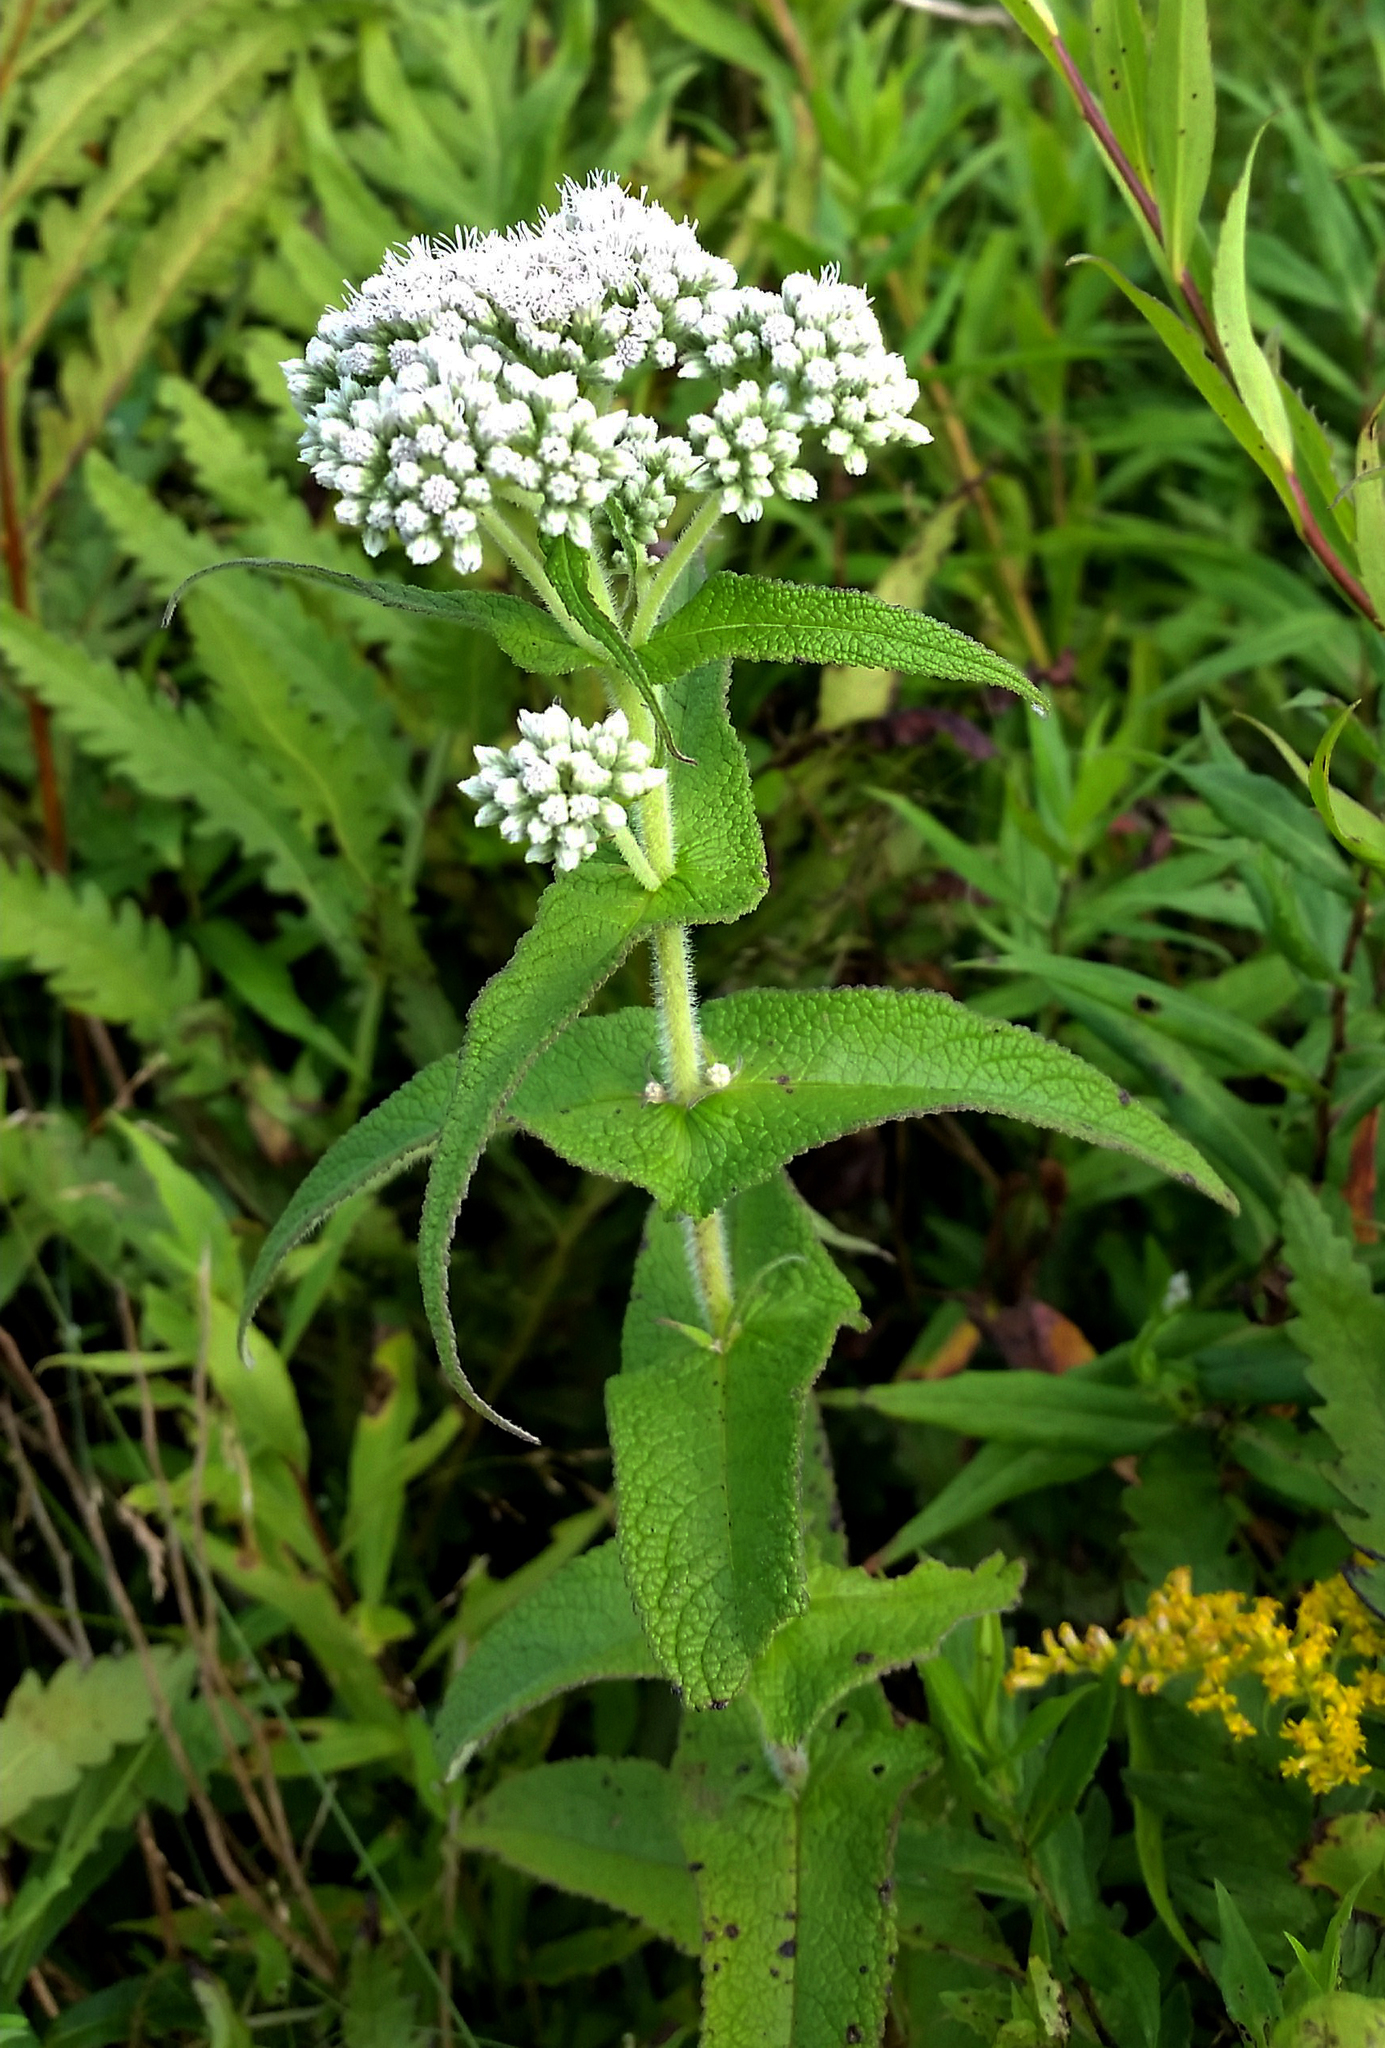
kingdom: Plantae
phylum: Tracheophyta
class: Magnoliopsida
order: Asterales
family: Asteraceae
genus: Eupatorium
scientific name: Eupatorium perfoliatum
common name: Boneset
